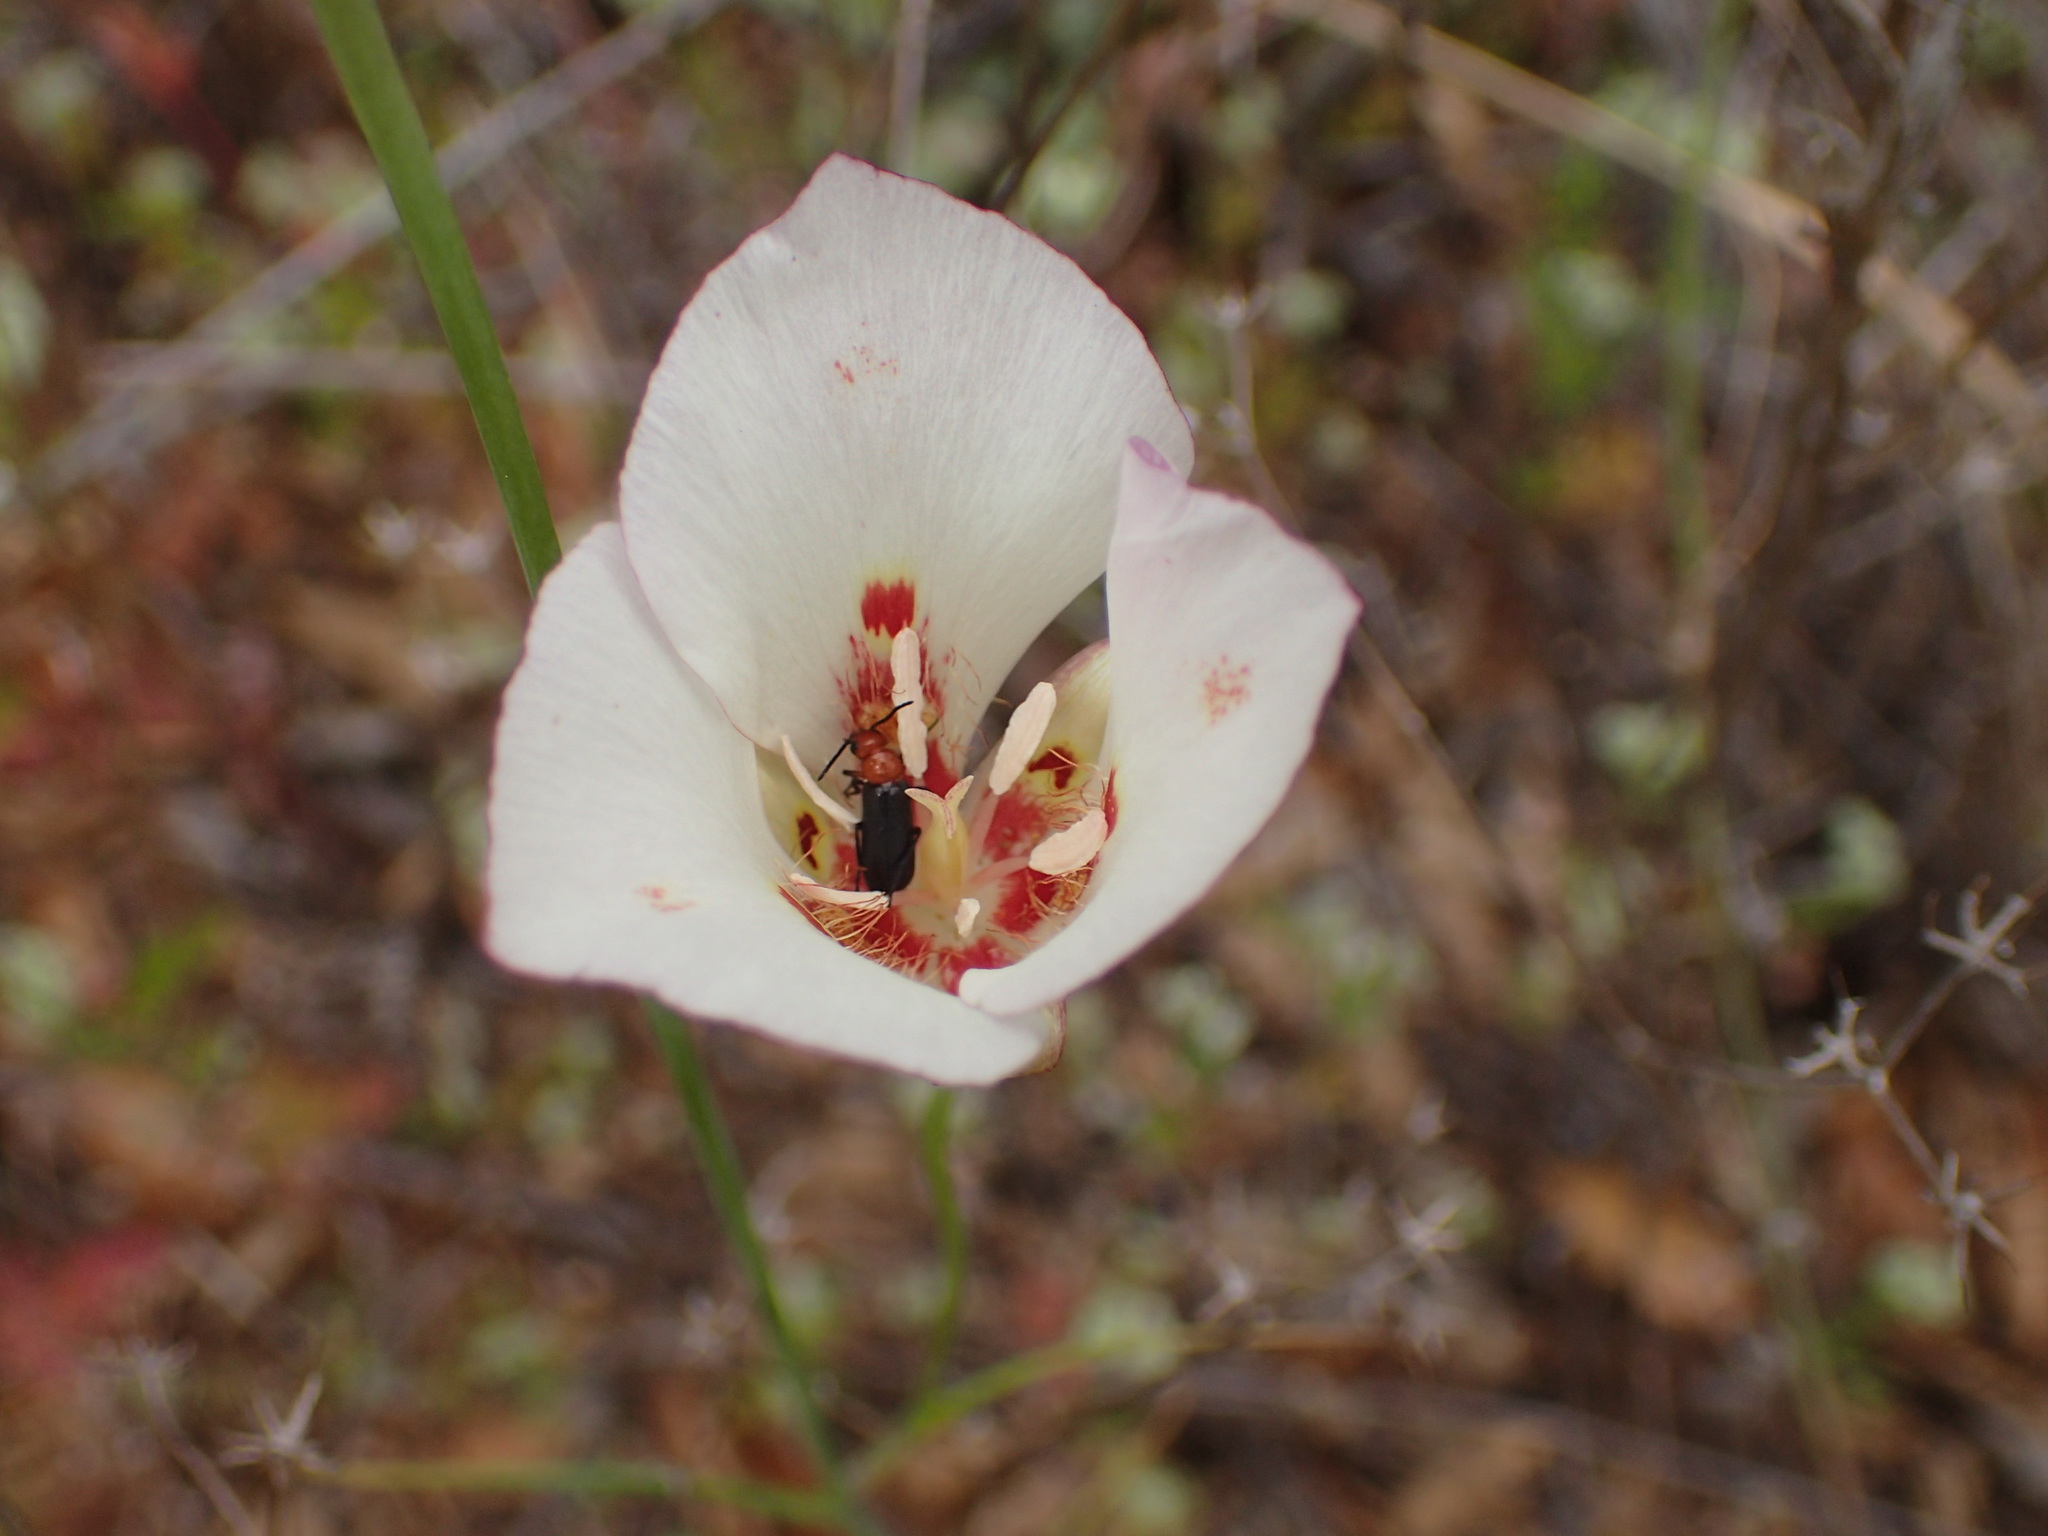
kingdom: Plantae
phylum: Tracheophyta
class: Liliopsida
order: Liliales
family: Liliaceae
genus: Calochortus
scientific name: Calochortus venustus
